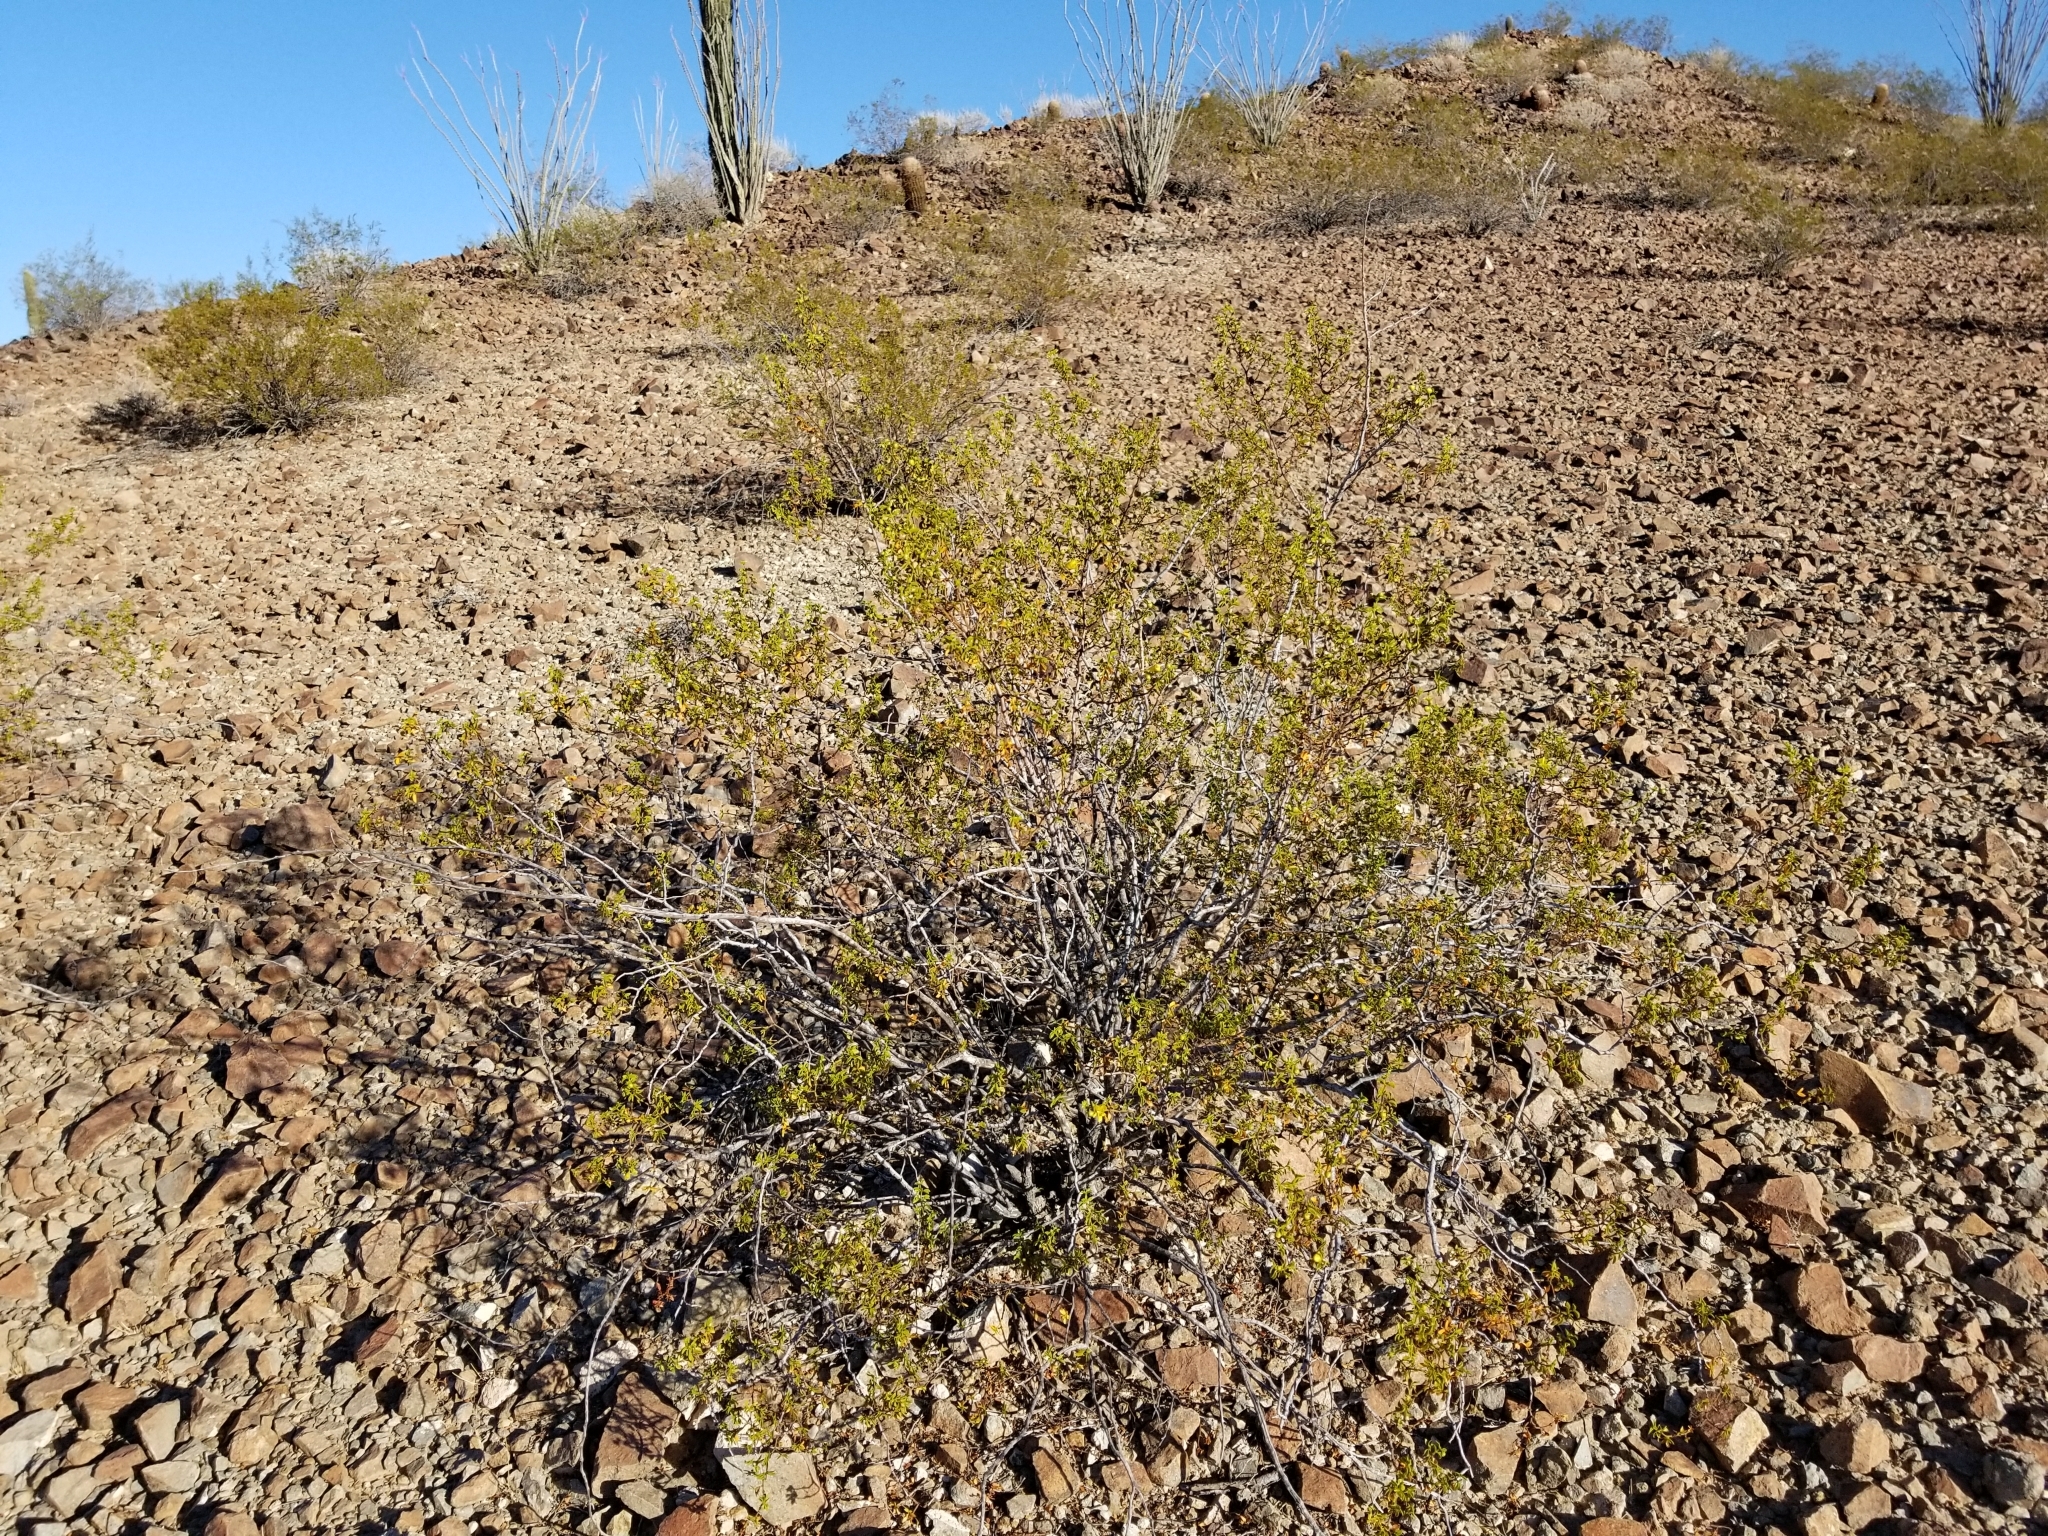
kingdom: Plantae
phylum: Tracheophyta
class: Magnoliopsida
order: Zygophyllales
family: Zygophyllaceae
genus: Larrea
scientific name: Larrea tridentata
